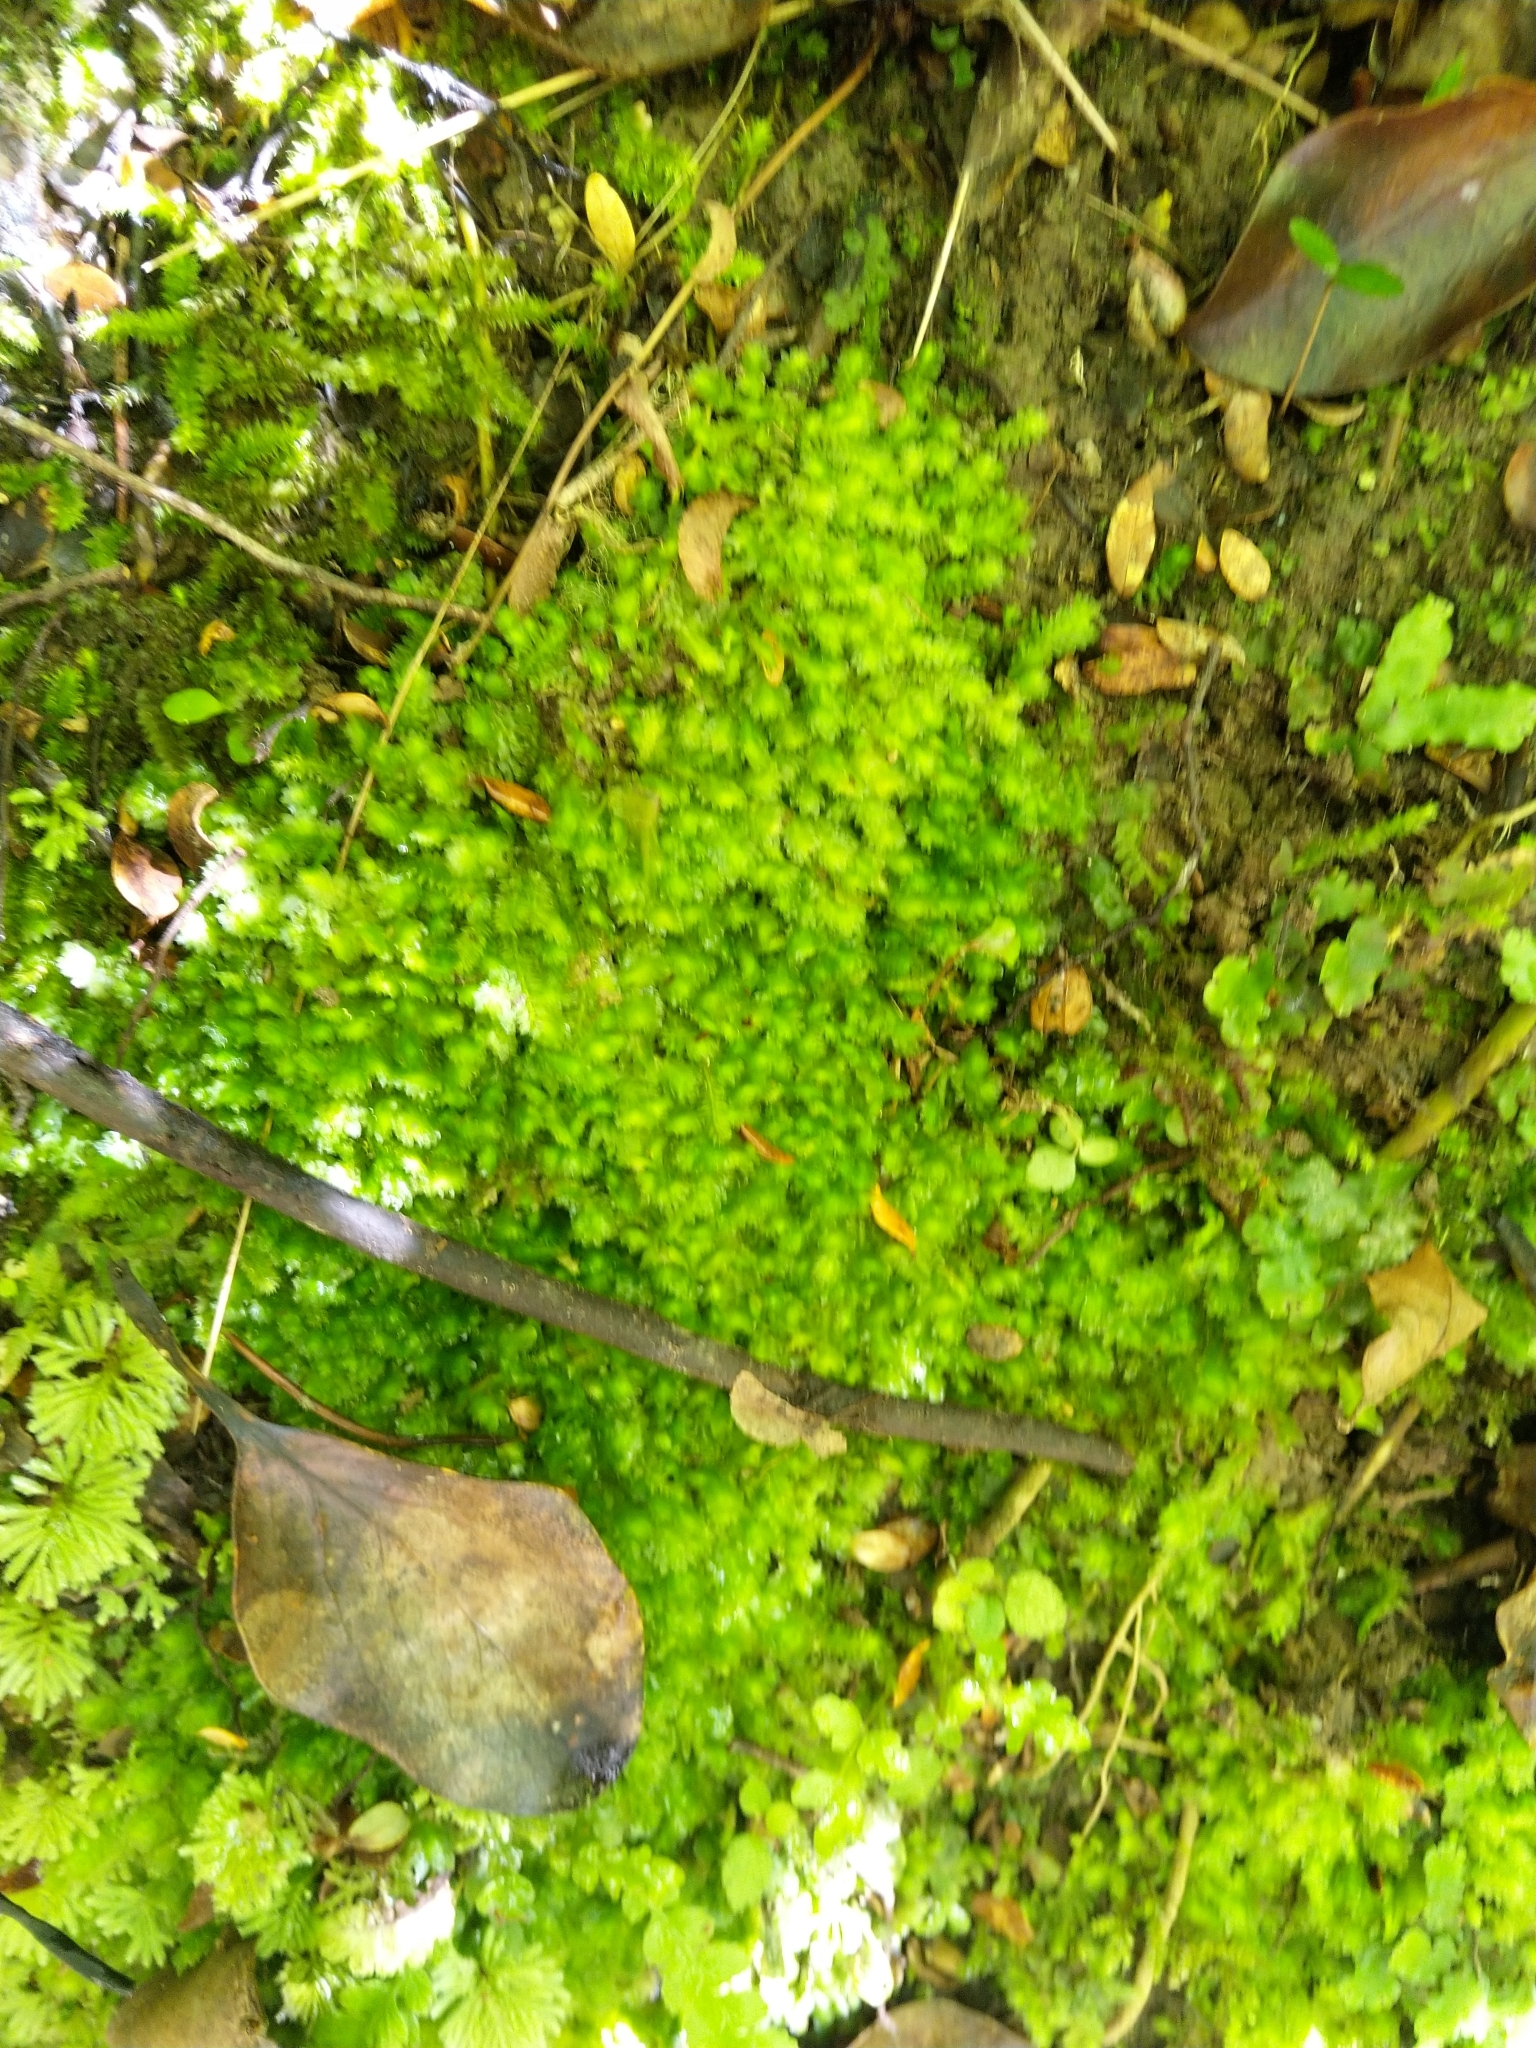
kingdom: Plantae
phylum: Marchantiophyta
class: Jungermanniopsida
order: Jungermanniales
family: Schistochilaceae
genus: Schistochila
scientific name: Schistochila balfouriana
